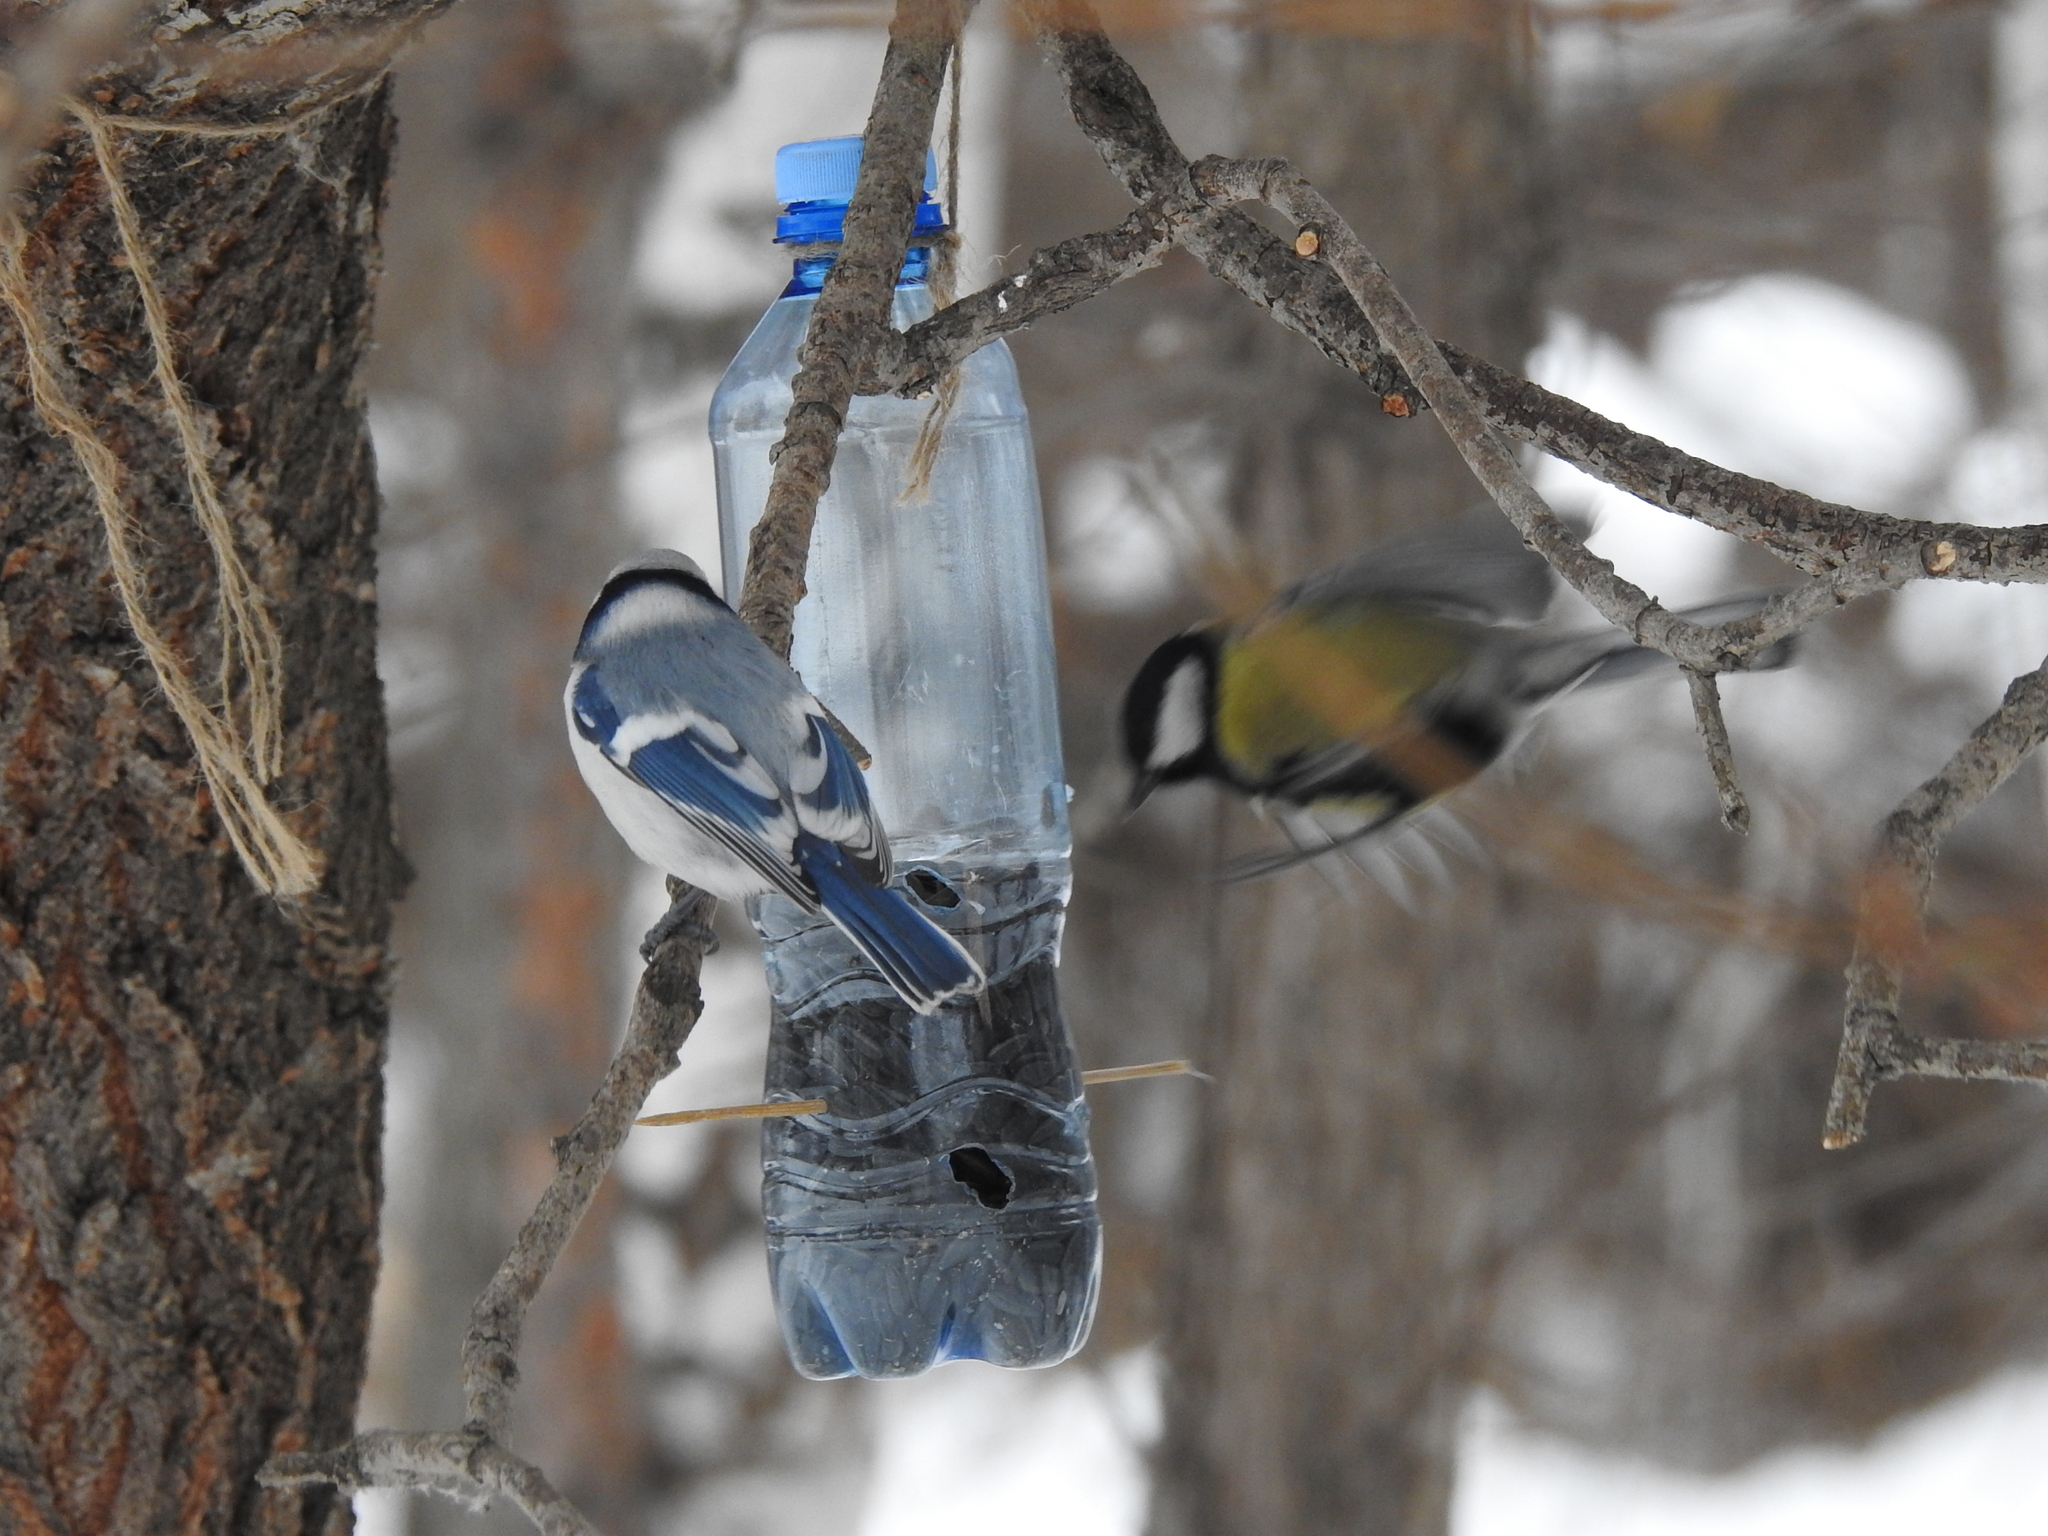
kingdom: Animalia
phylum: Chordata
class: Aves
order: Passeriformes
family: Paridae
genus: Cyanistes
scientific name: Cyanistes
